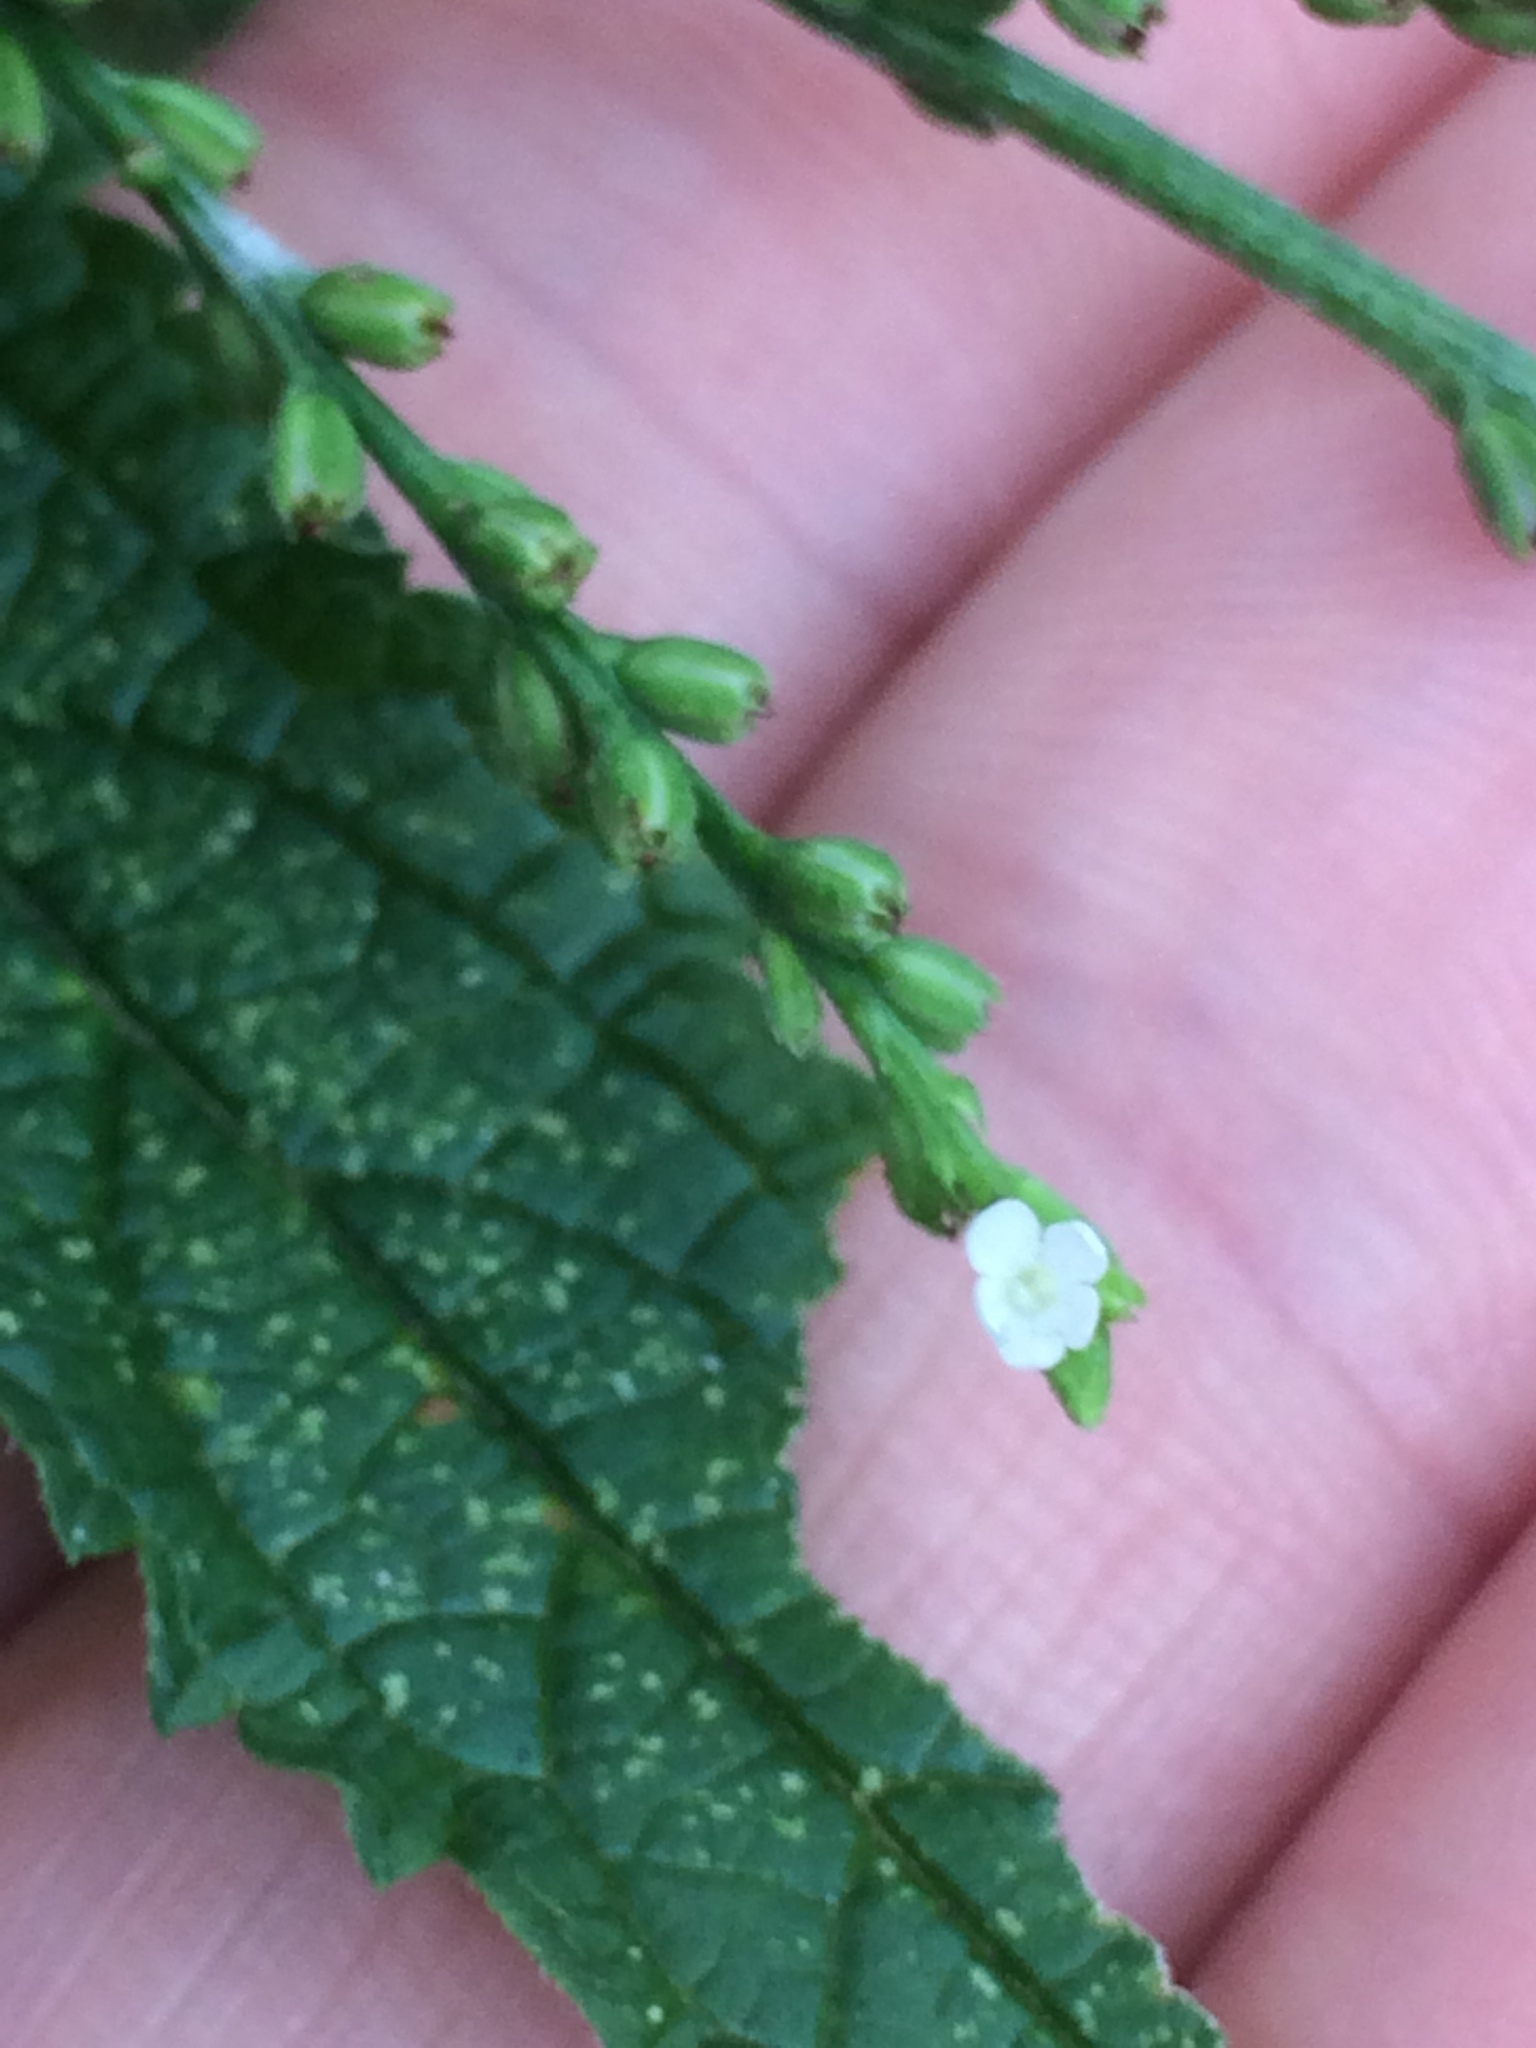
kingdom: Plantae
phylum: Tracheophyta
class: Magnoliopsida
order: Lamiales
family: Verbenaceae
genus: Verbena
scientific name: Verbena urticifolia
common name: Nettle-leaved vervain
